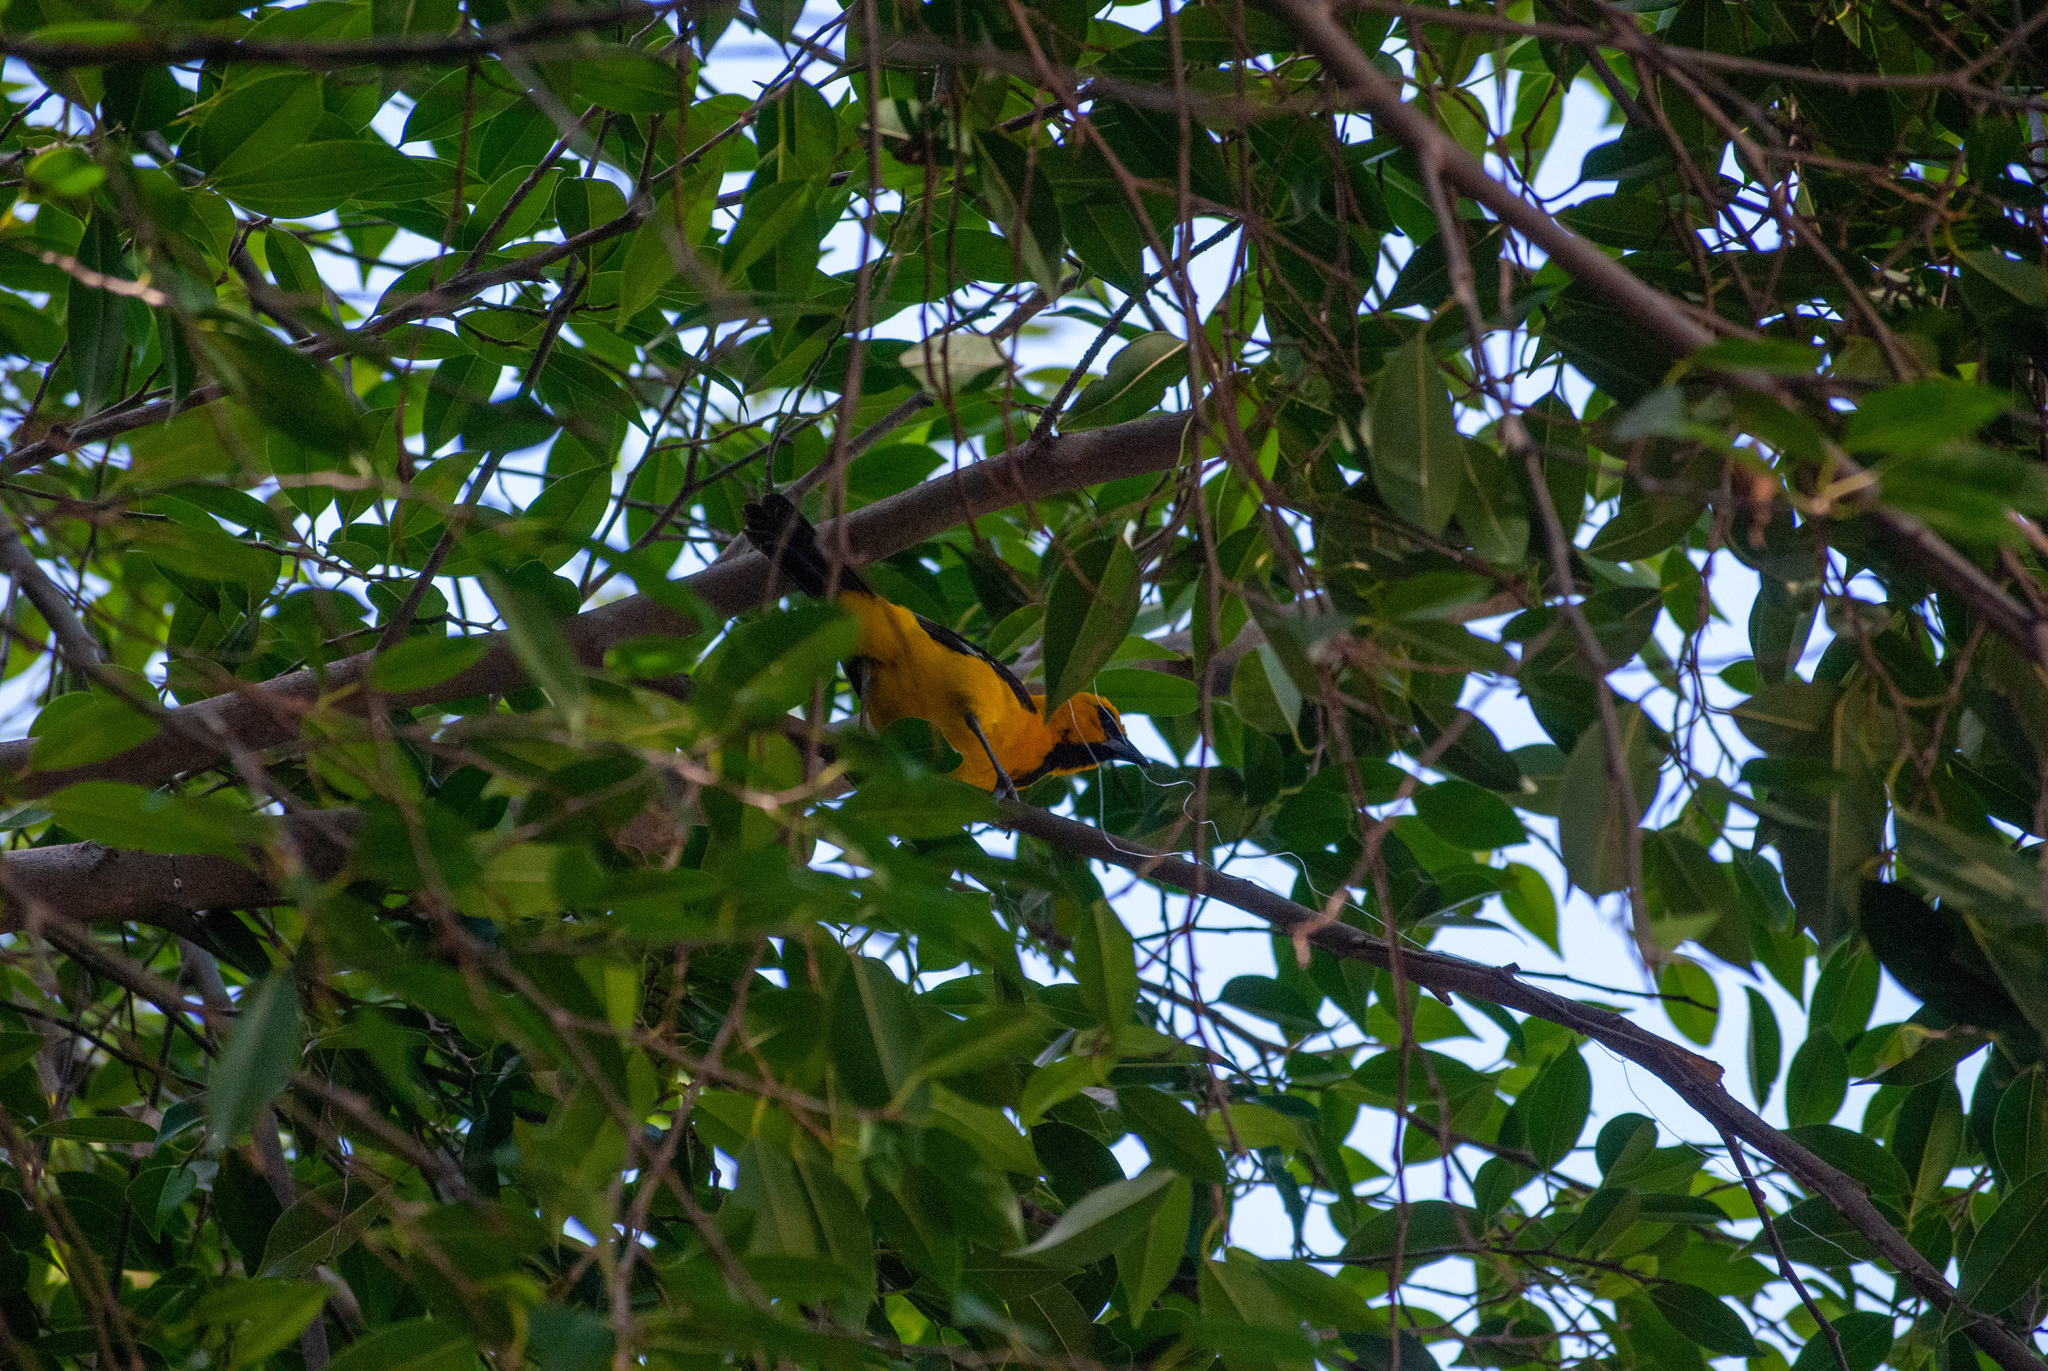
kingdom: Animalia
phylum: Chordata
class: Aves
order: Passeriformes
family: Icteridae
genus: Icterus
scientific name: Icterus nigrogularis
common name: Yellow oriole
